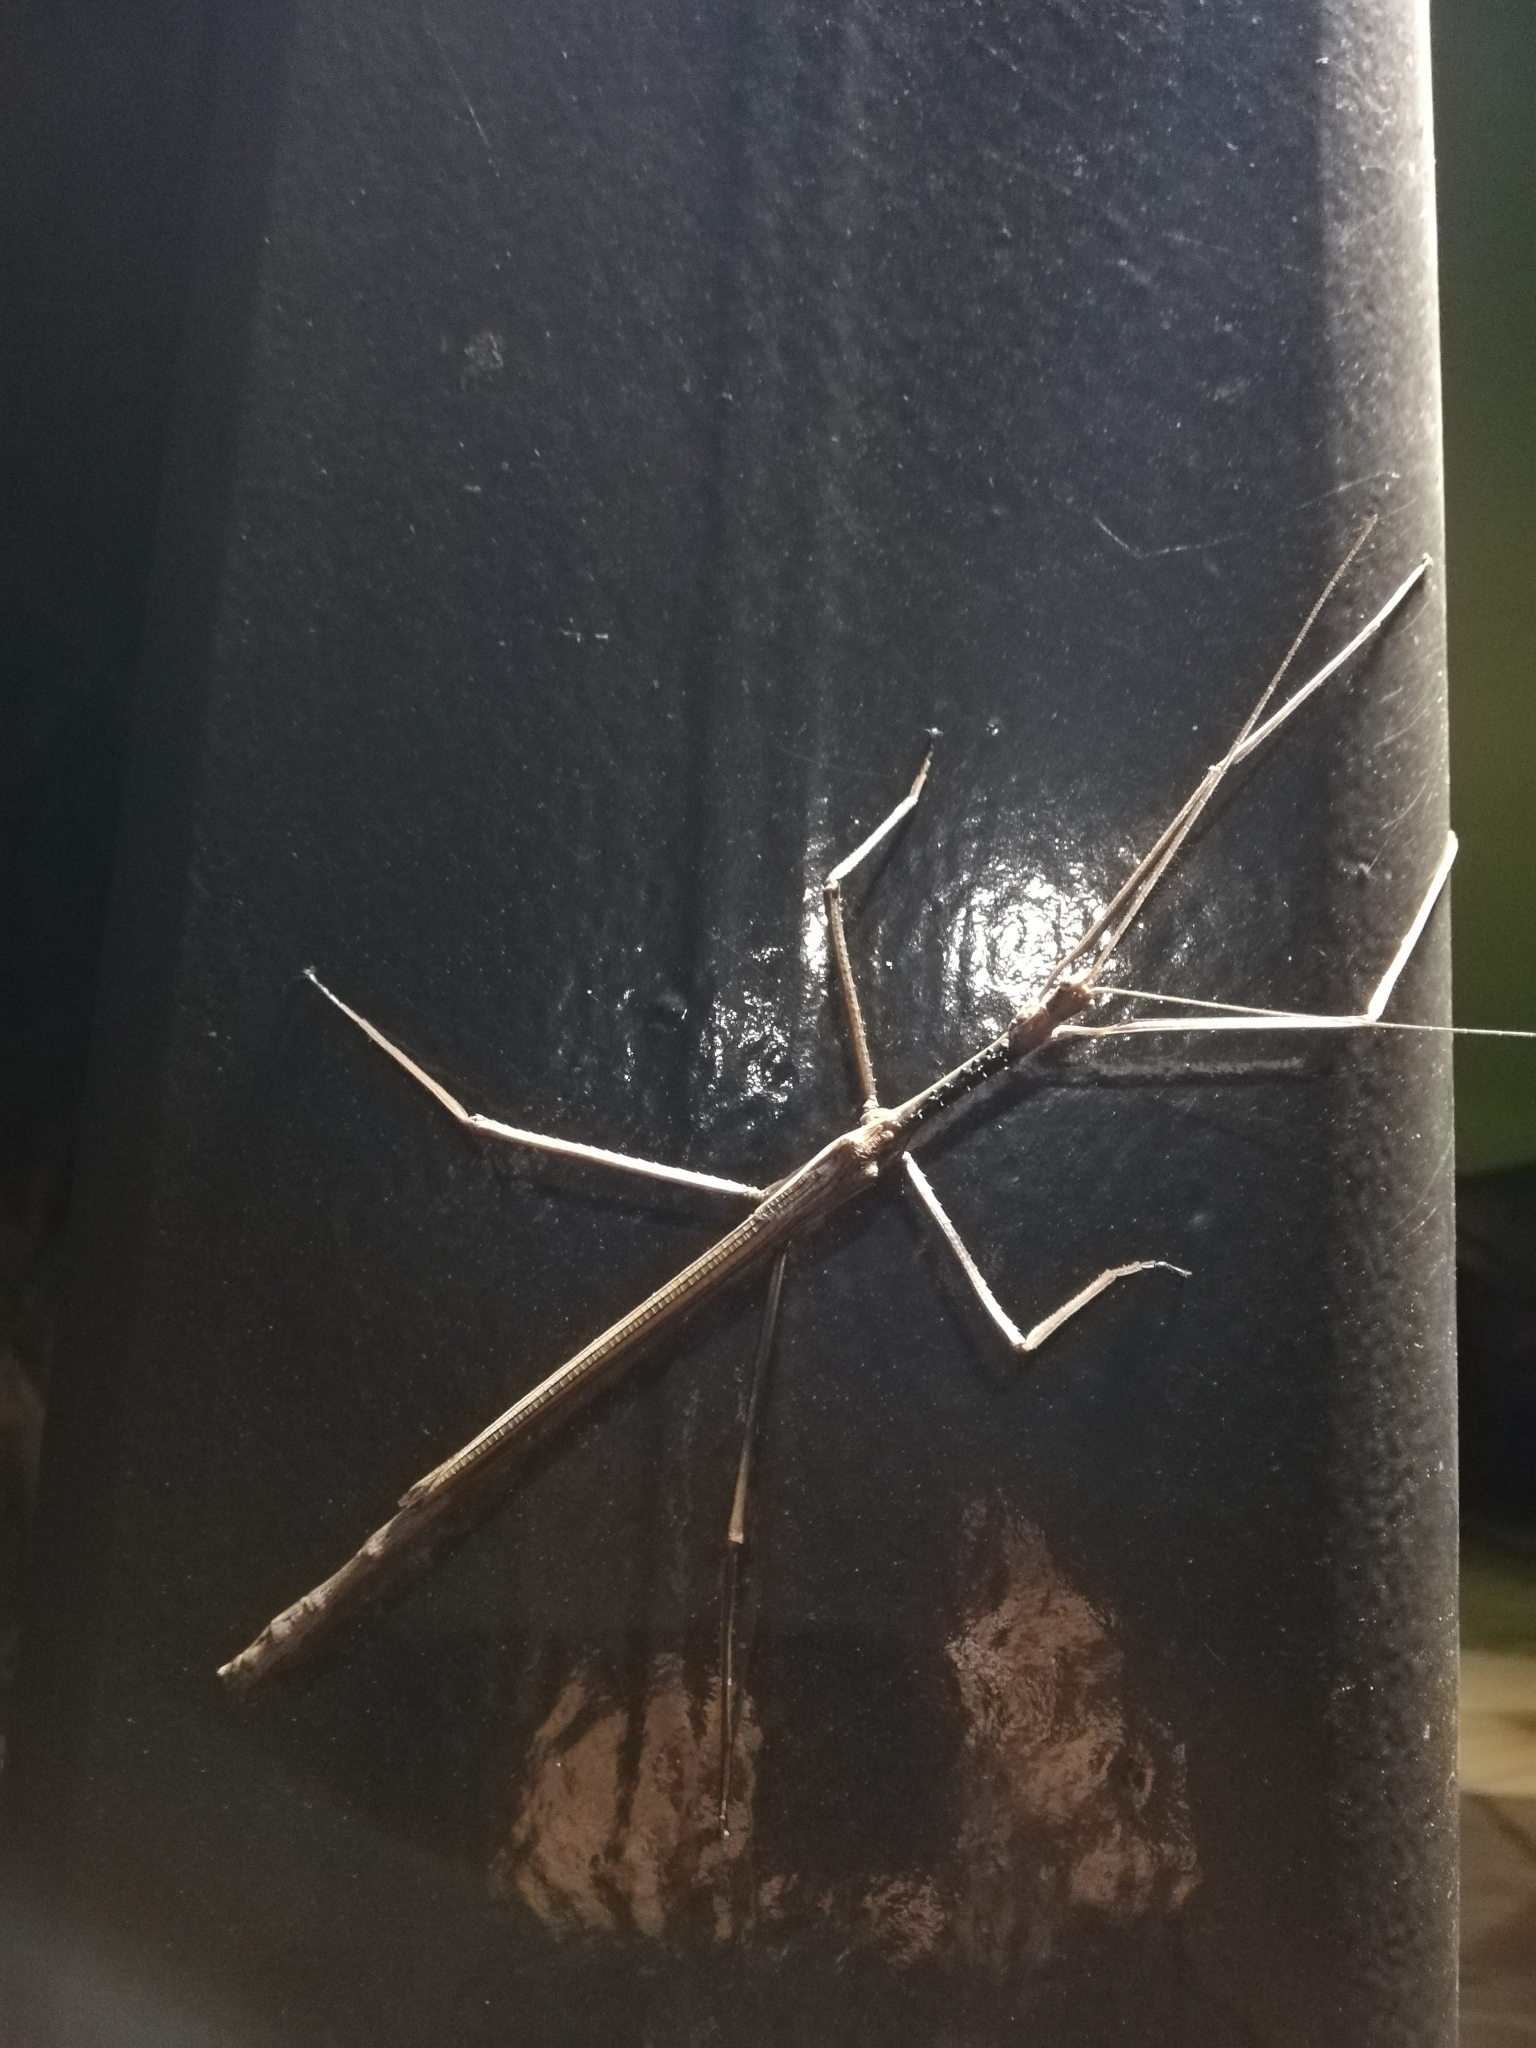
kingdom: Animalia
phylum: Arthropoda
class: Insecta
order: Phasmida
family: Phasmatidae
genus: Acrophylla
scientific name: Acrophylla wuelfingi
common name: Wülfing's stick insect
